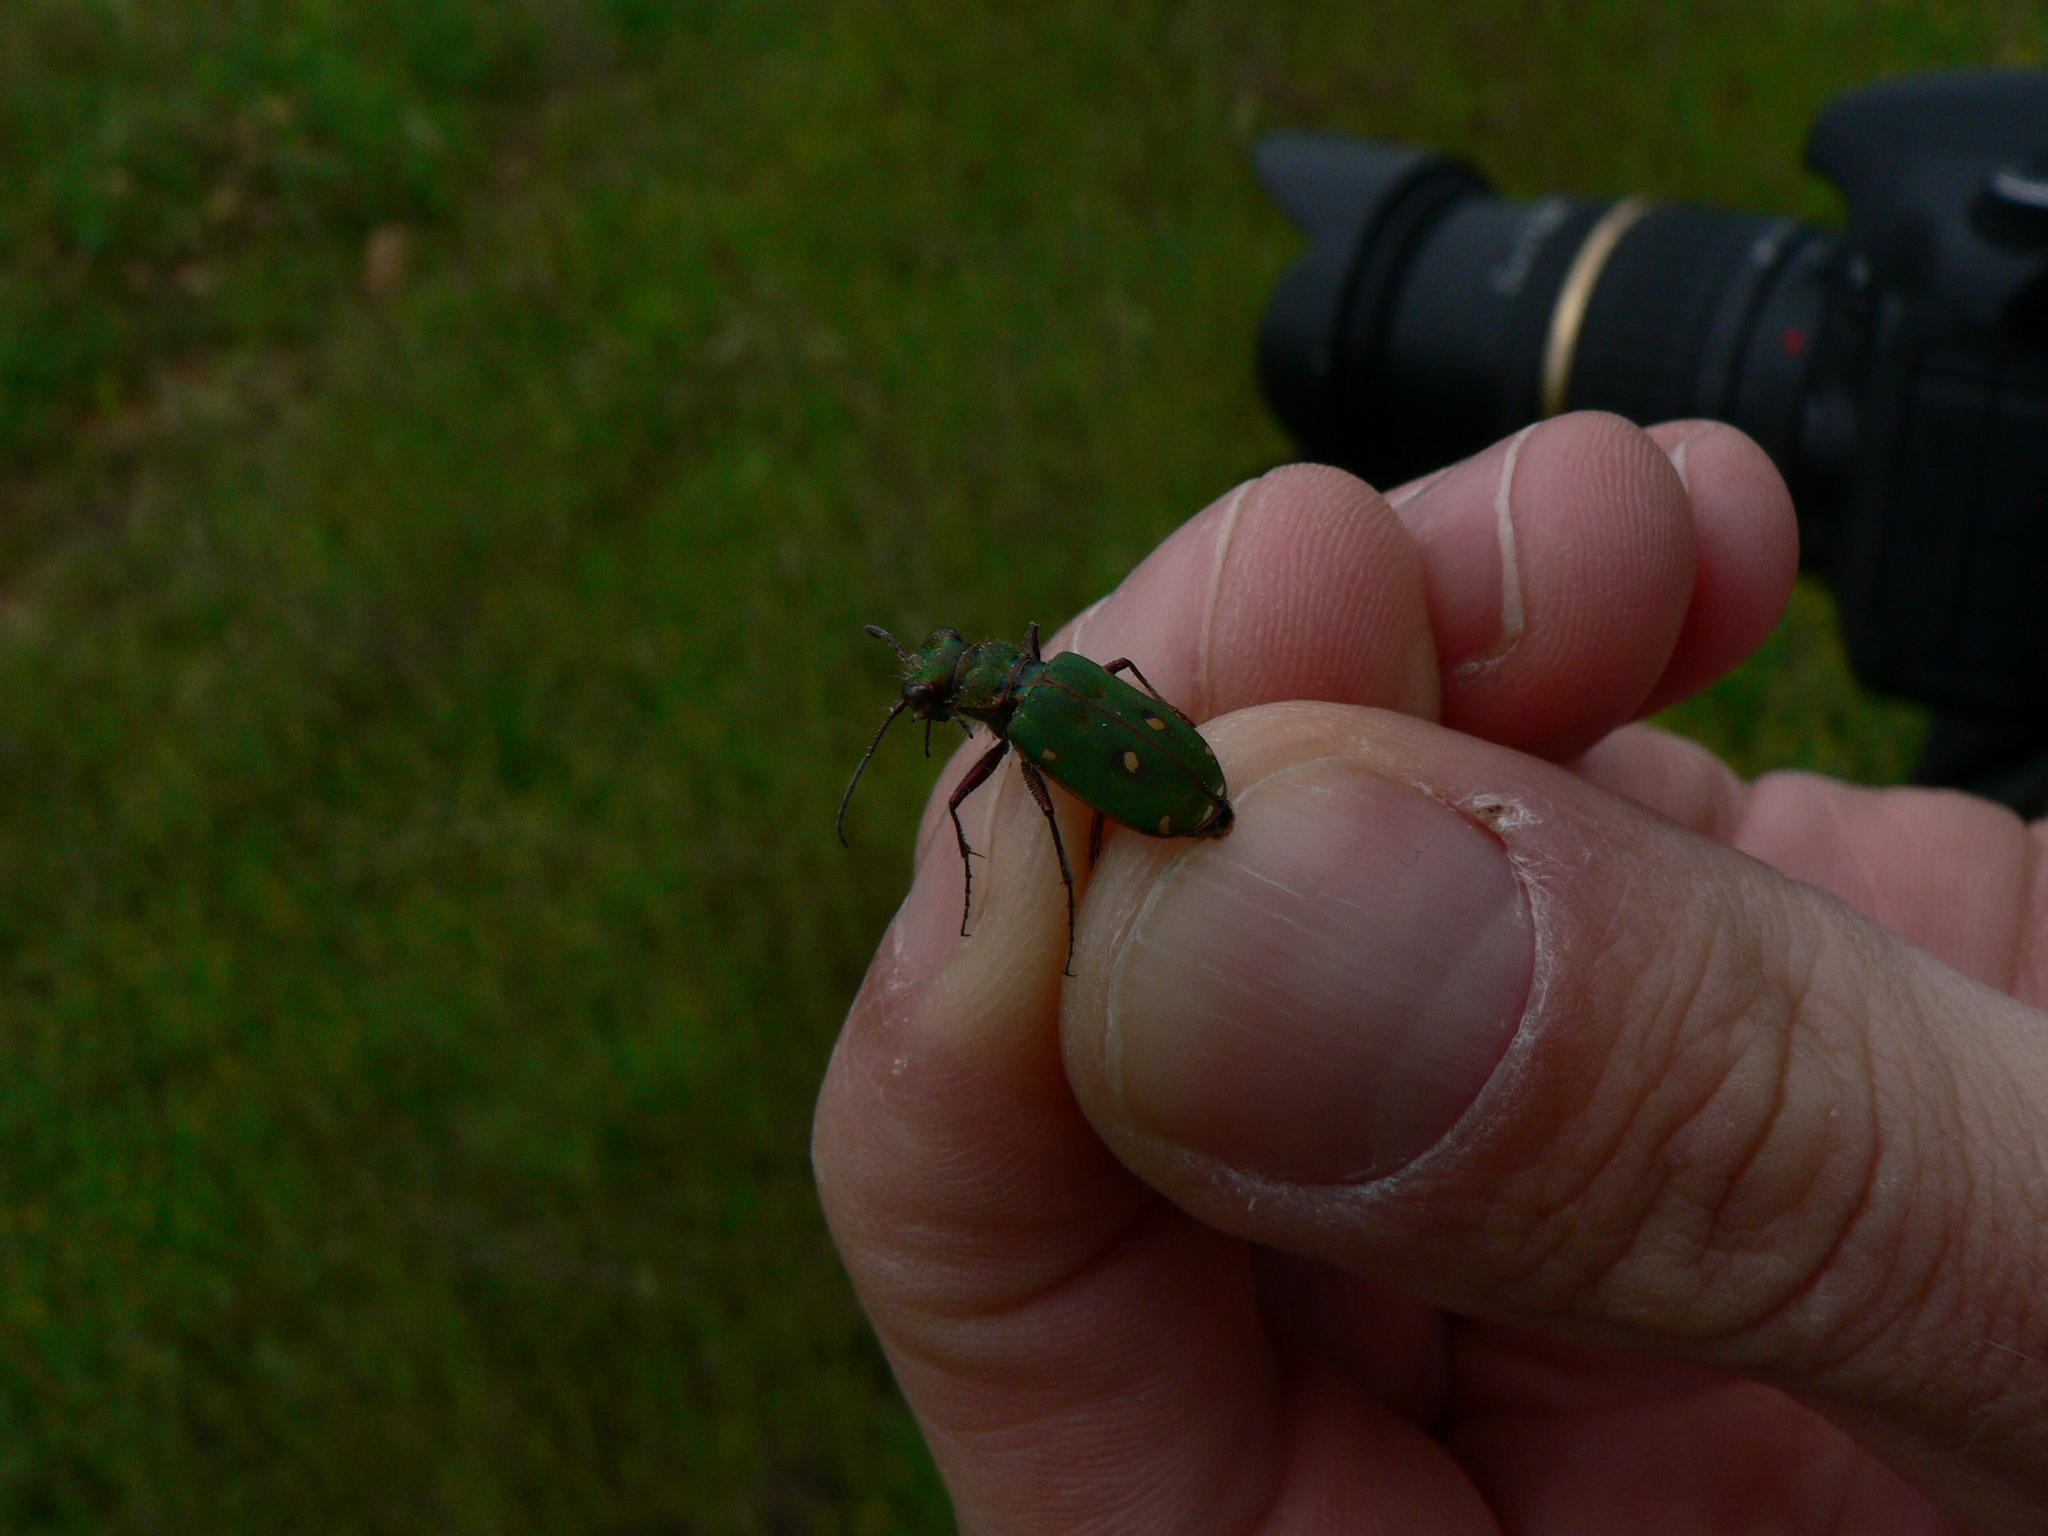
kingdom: Animalia
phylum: Arthropoda
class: Insecta
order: Coleoptera
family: Carabidae
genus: Cicindela
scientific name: Cicindela campestris
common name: Common tiger beetle
